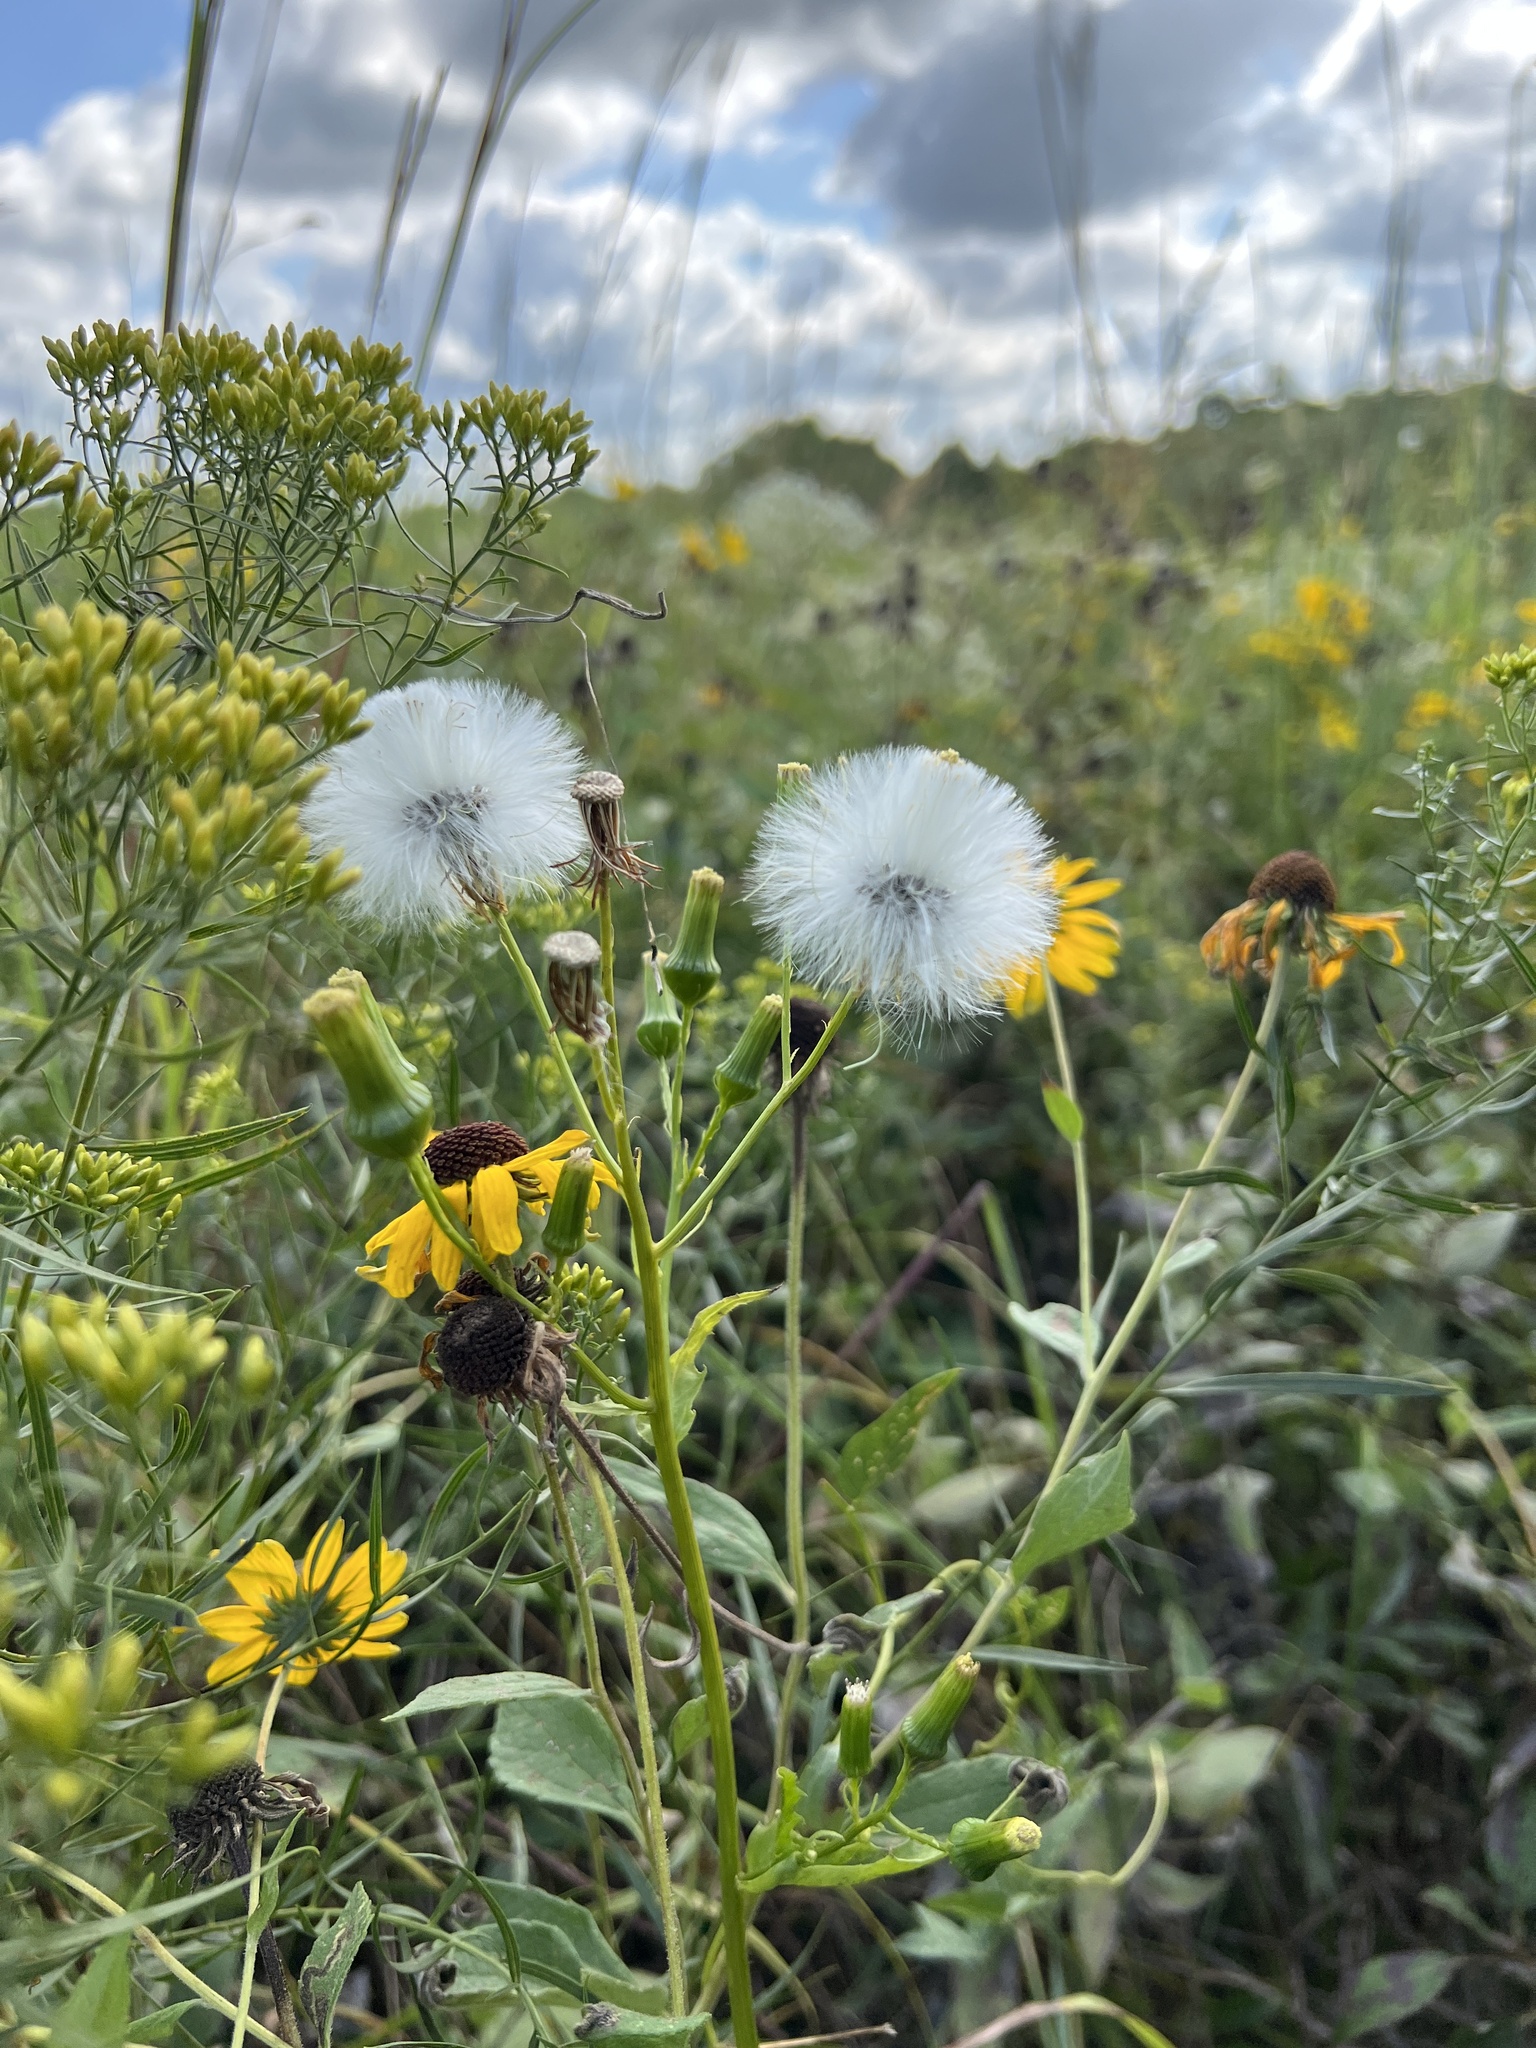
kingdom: Plantae
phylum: Tracheophyta
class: Magnoliopsida
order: Asterales
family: Asteraceae
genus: Erechtites
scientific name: Erechtites hieraciifolius
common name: American burnweed
